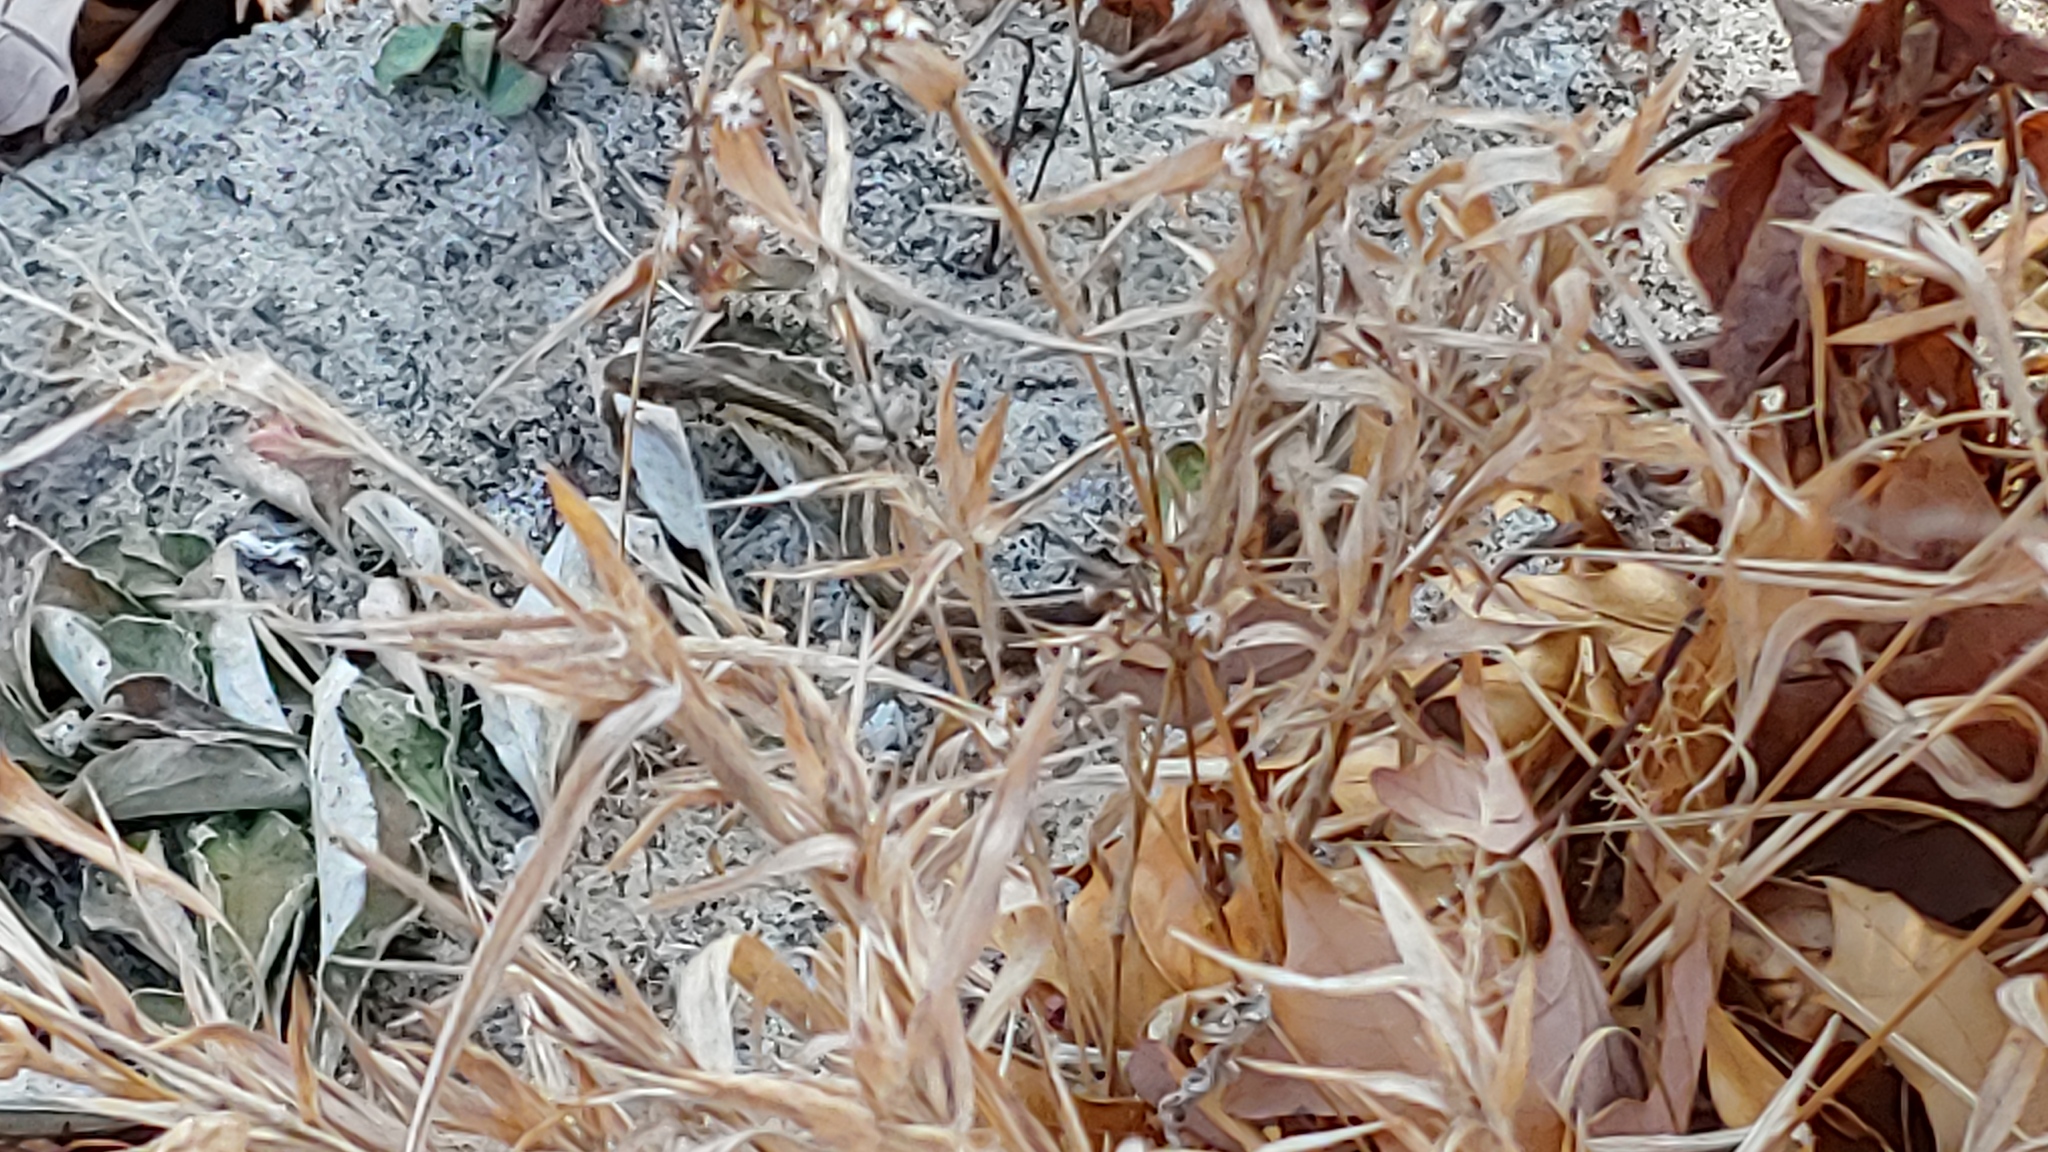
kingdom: Animalia
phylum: Chordata
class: Squamata
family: Colubridae
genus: Thamnophis
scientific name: Thamnophis sirtalis
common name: Common garter snake
